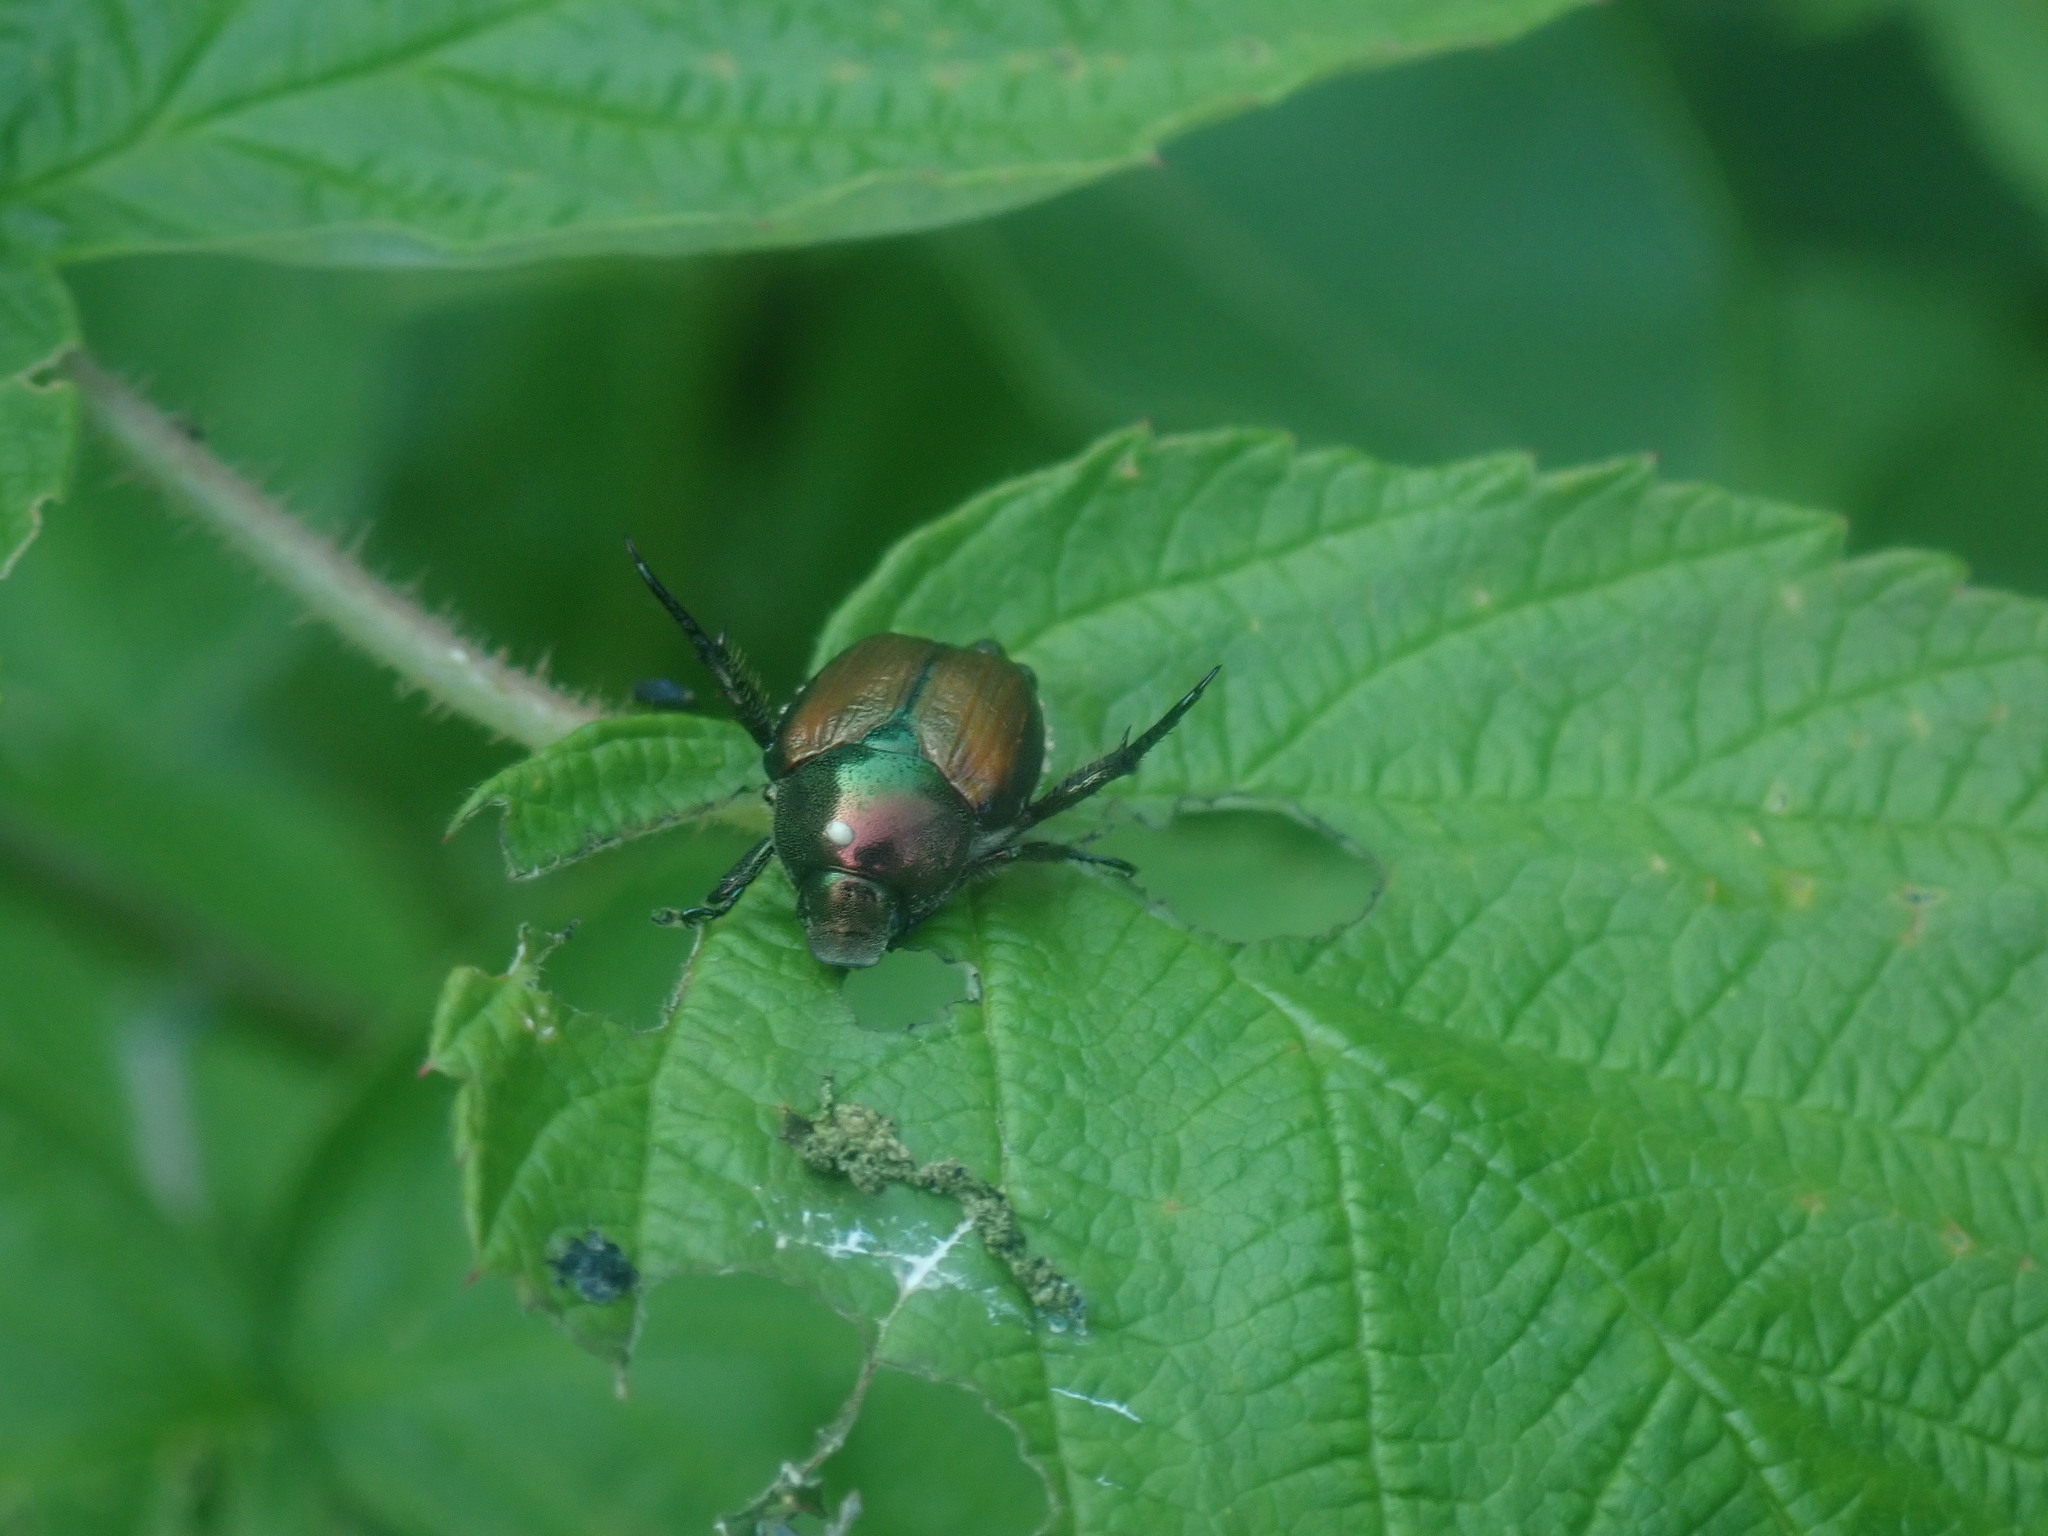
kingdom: Animalia
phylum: Arthropoda
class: Insecta
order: Coleoptera
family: Scarabaeidae
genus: Popillia
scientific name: Popillia japonica
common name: Japanese beetle
